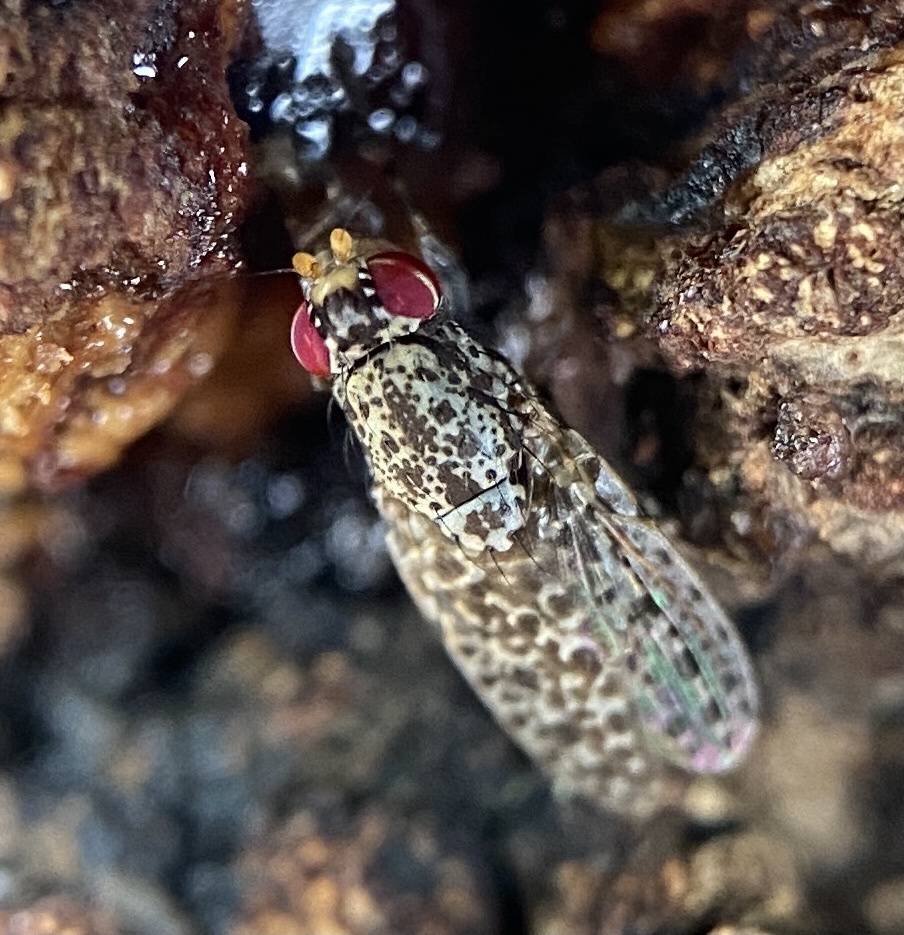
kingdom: Animalia
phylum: Arthropoda
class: Insecta
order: Diptera
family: Odiniidae
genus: Traginops
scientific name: Traginops irroratus
